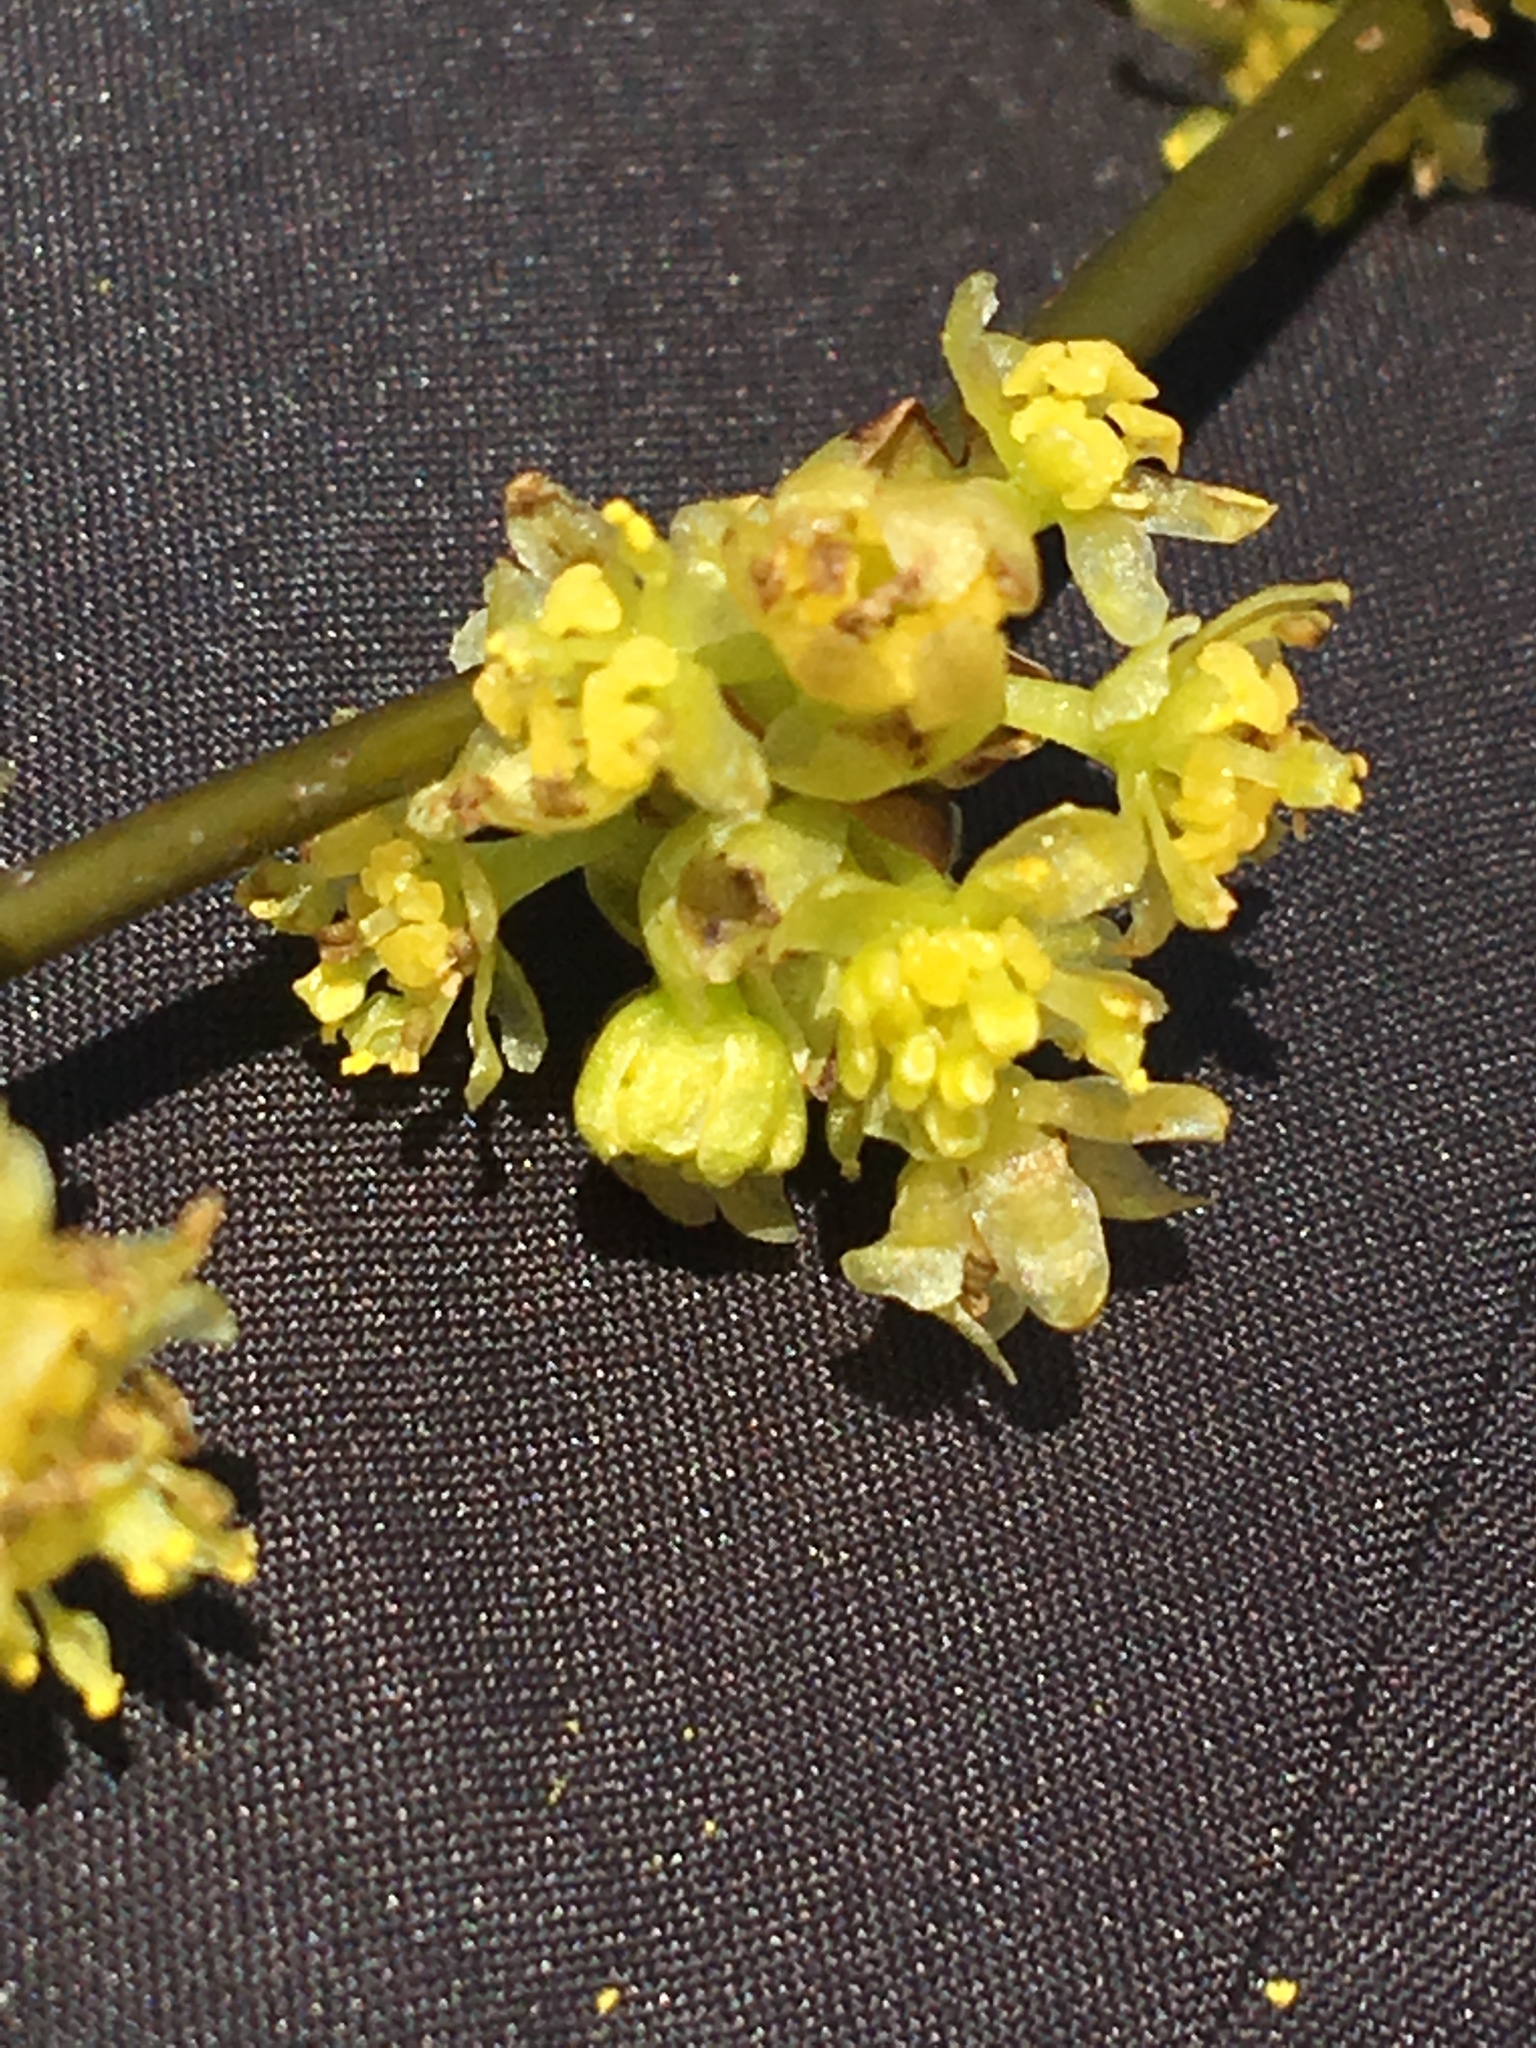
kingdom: Plantae
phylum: Tracheophyta
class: Magnoliopsida
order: Laurales
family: Lauraceae
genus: Lindera
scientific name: Lindera benzoin
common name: Spicebush
